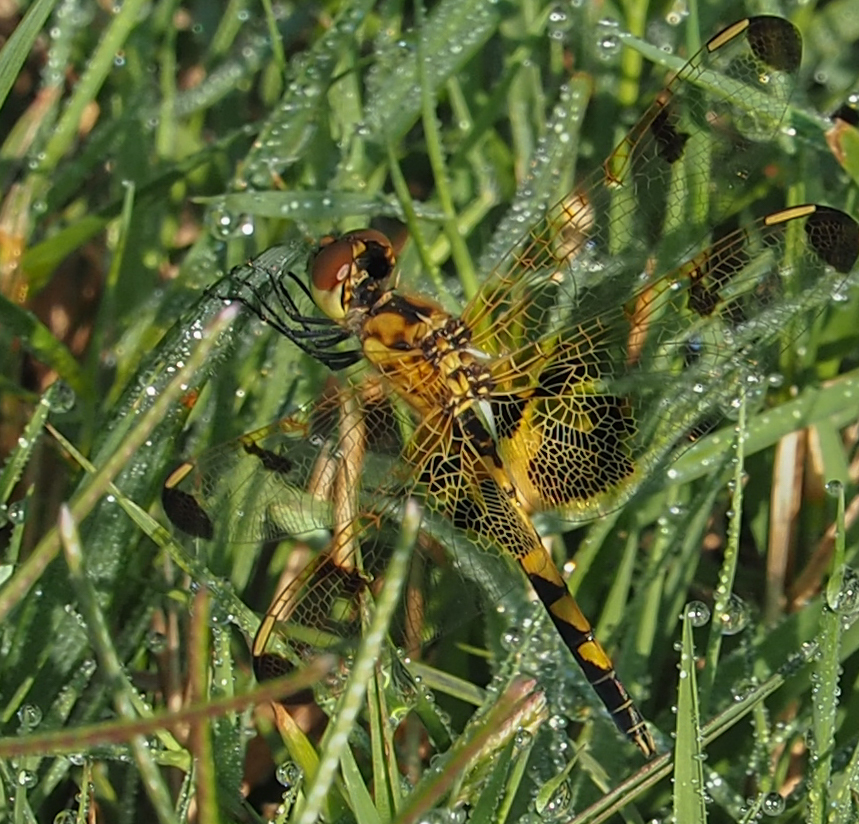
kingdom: Animalia
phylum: Arthropoda
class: Insecta
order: Odonata
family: Libellulidae
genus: Celithemis
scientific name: Celithemis elisa
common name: Calico pennant
